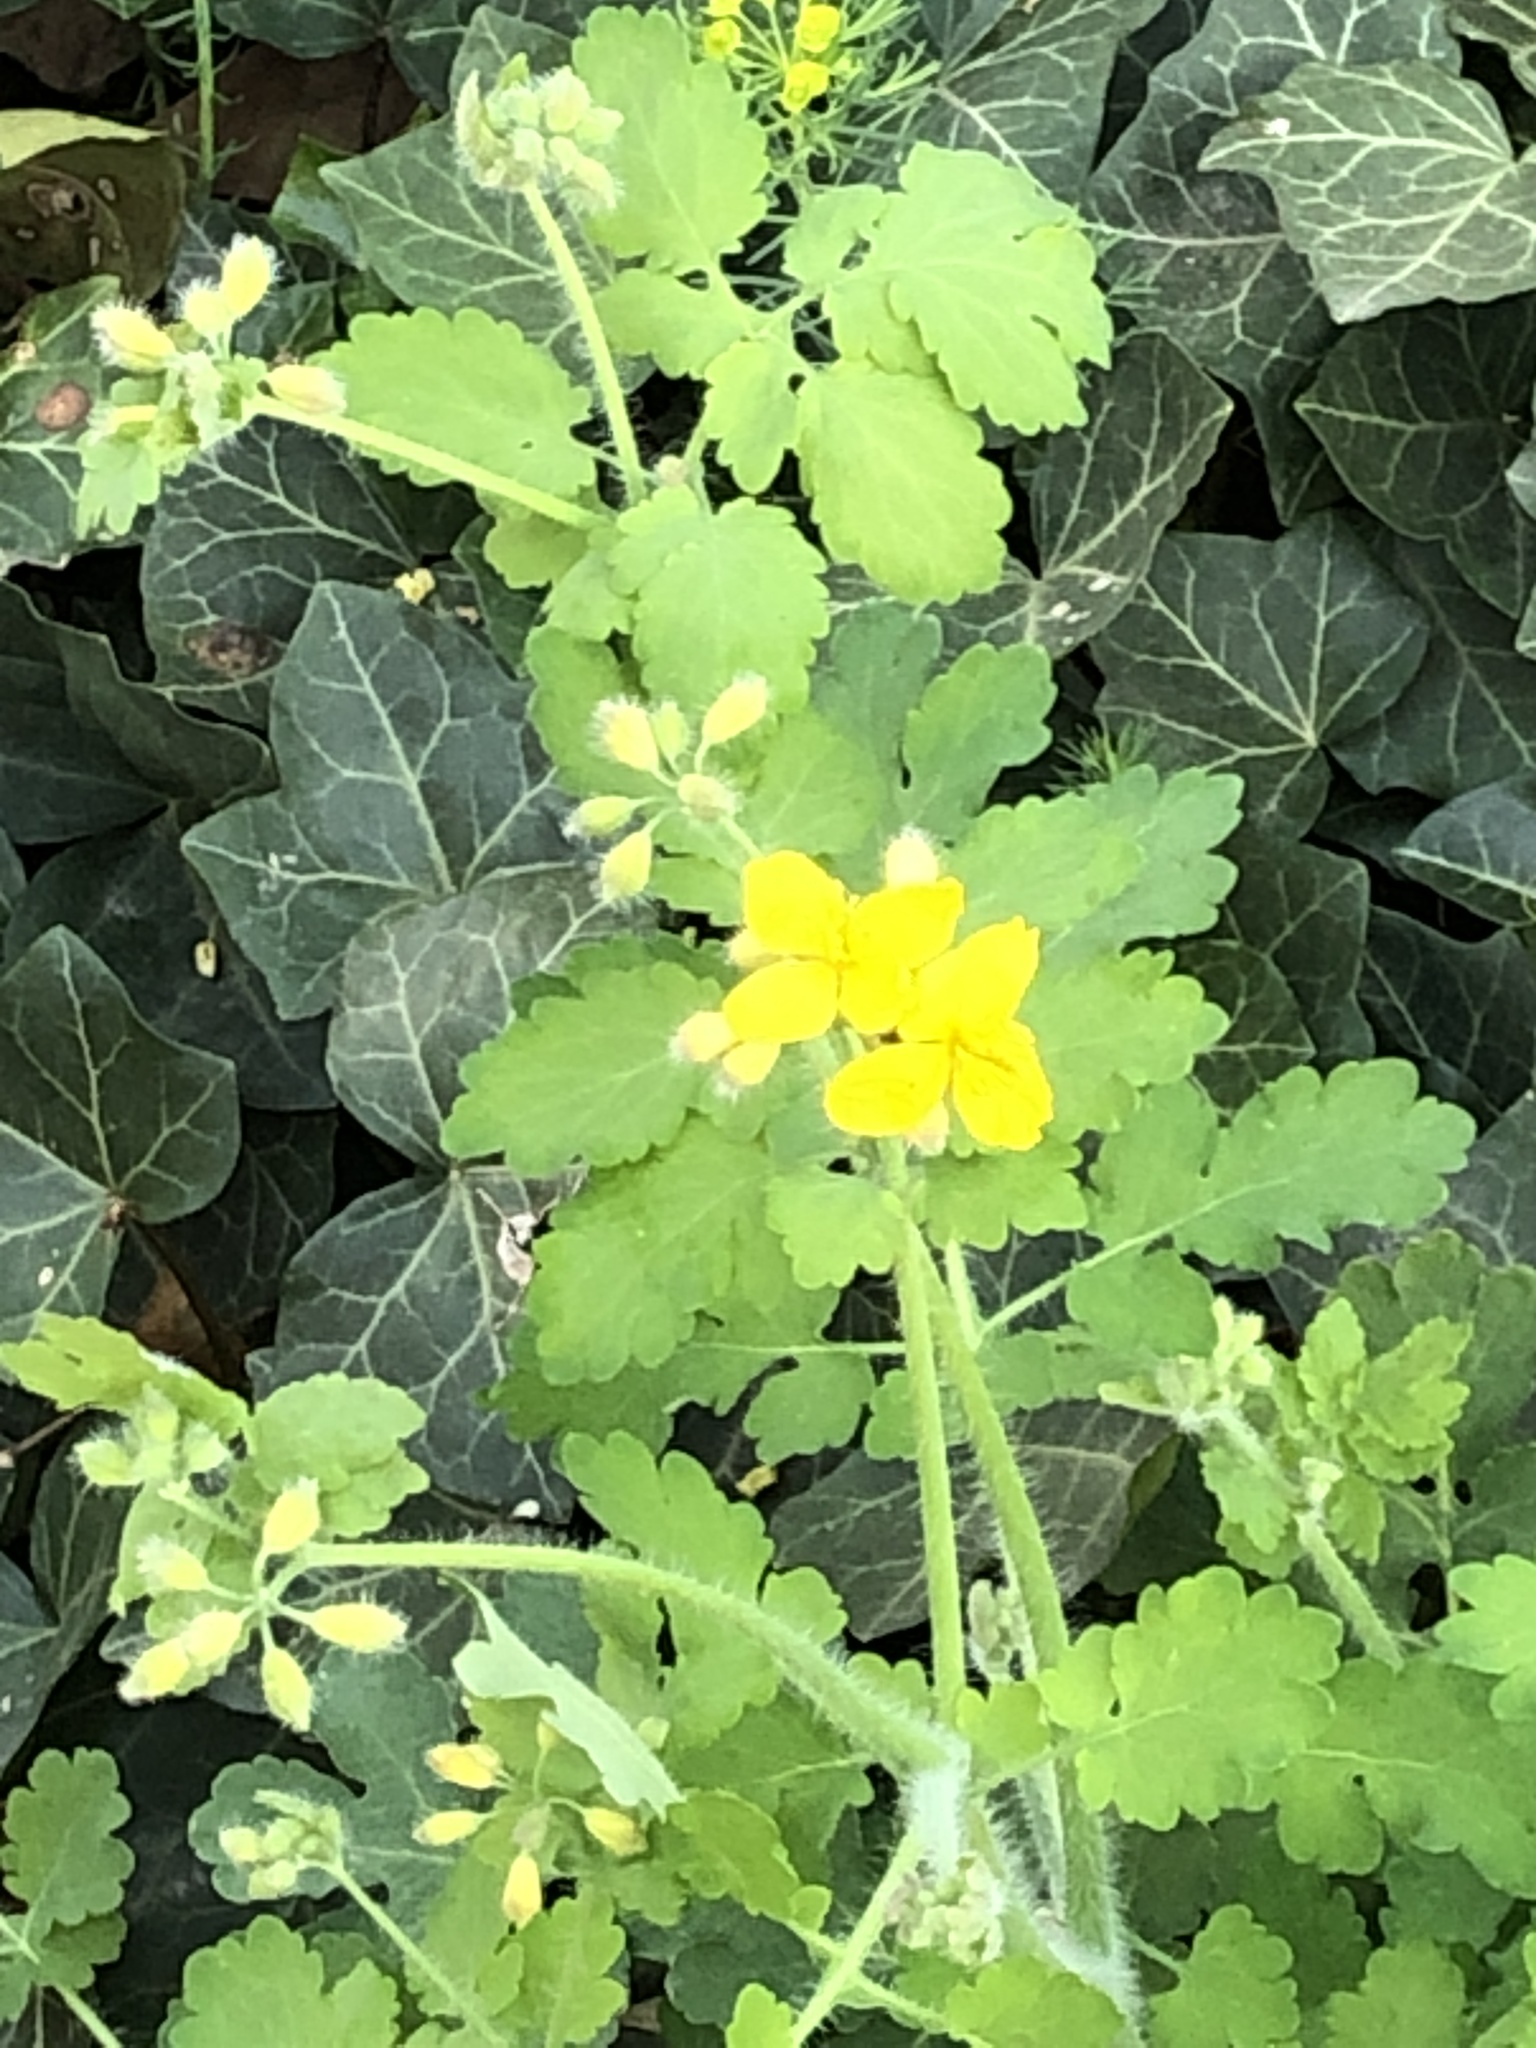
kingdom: Plantae
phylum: Tracheophyta
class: Magnoliopsida
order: Ranunculales
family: Papaveraceae
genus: Chelidonium
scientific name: Chelidonium majus
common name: Greater celandine
